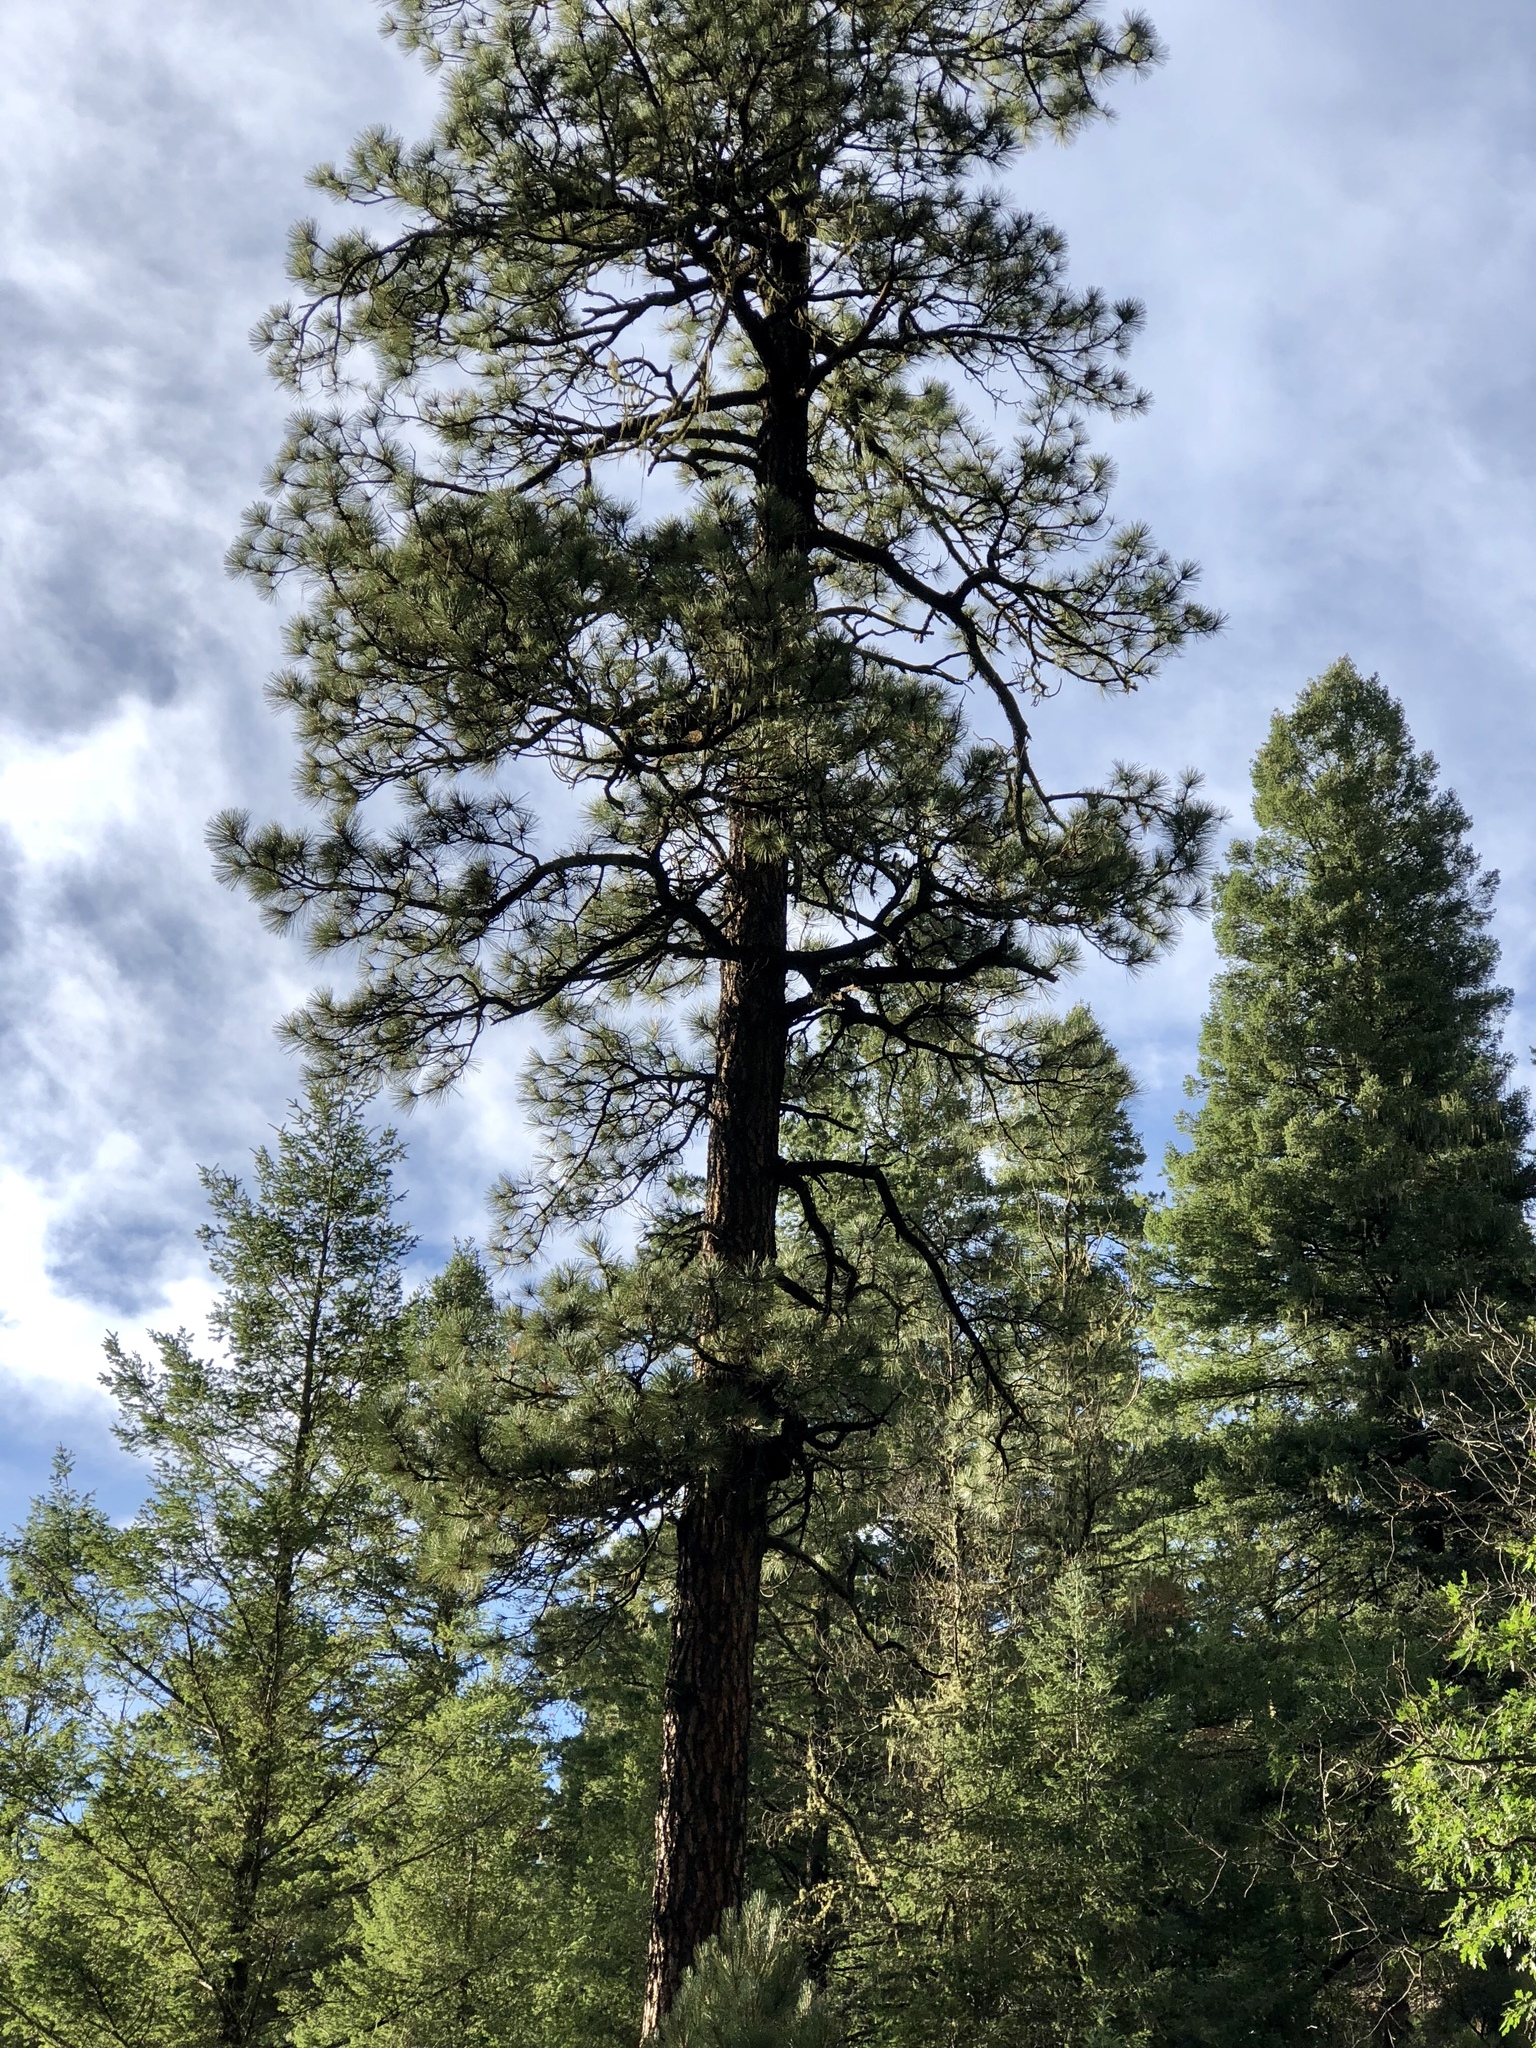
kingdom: Plantae
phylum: Tracheophyta
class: Pinopsida
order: Pinales
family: Pinaceae
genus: Pinus
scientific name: Pinus ponderosa
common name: Western yellow-pine
